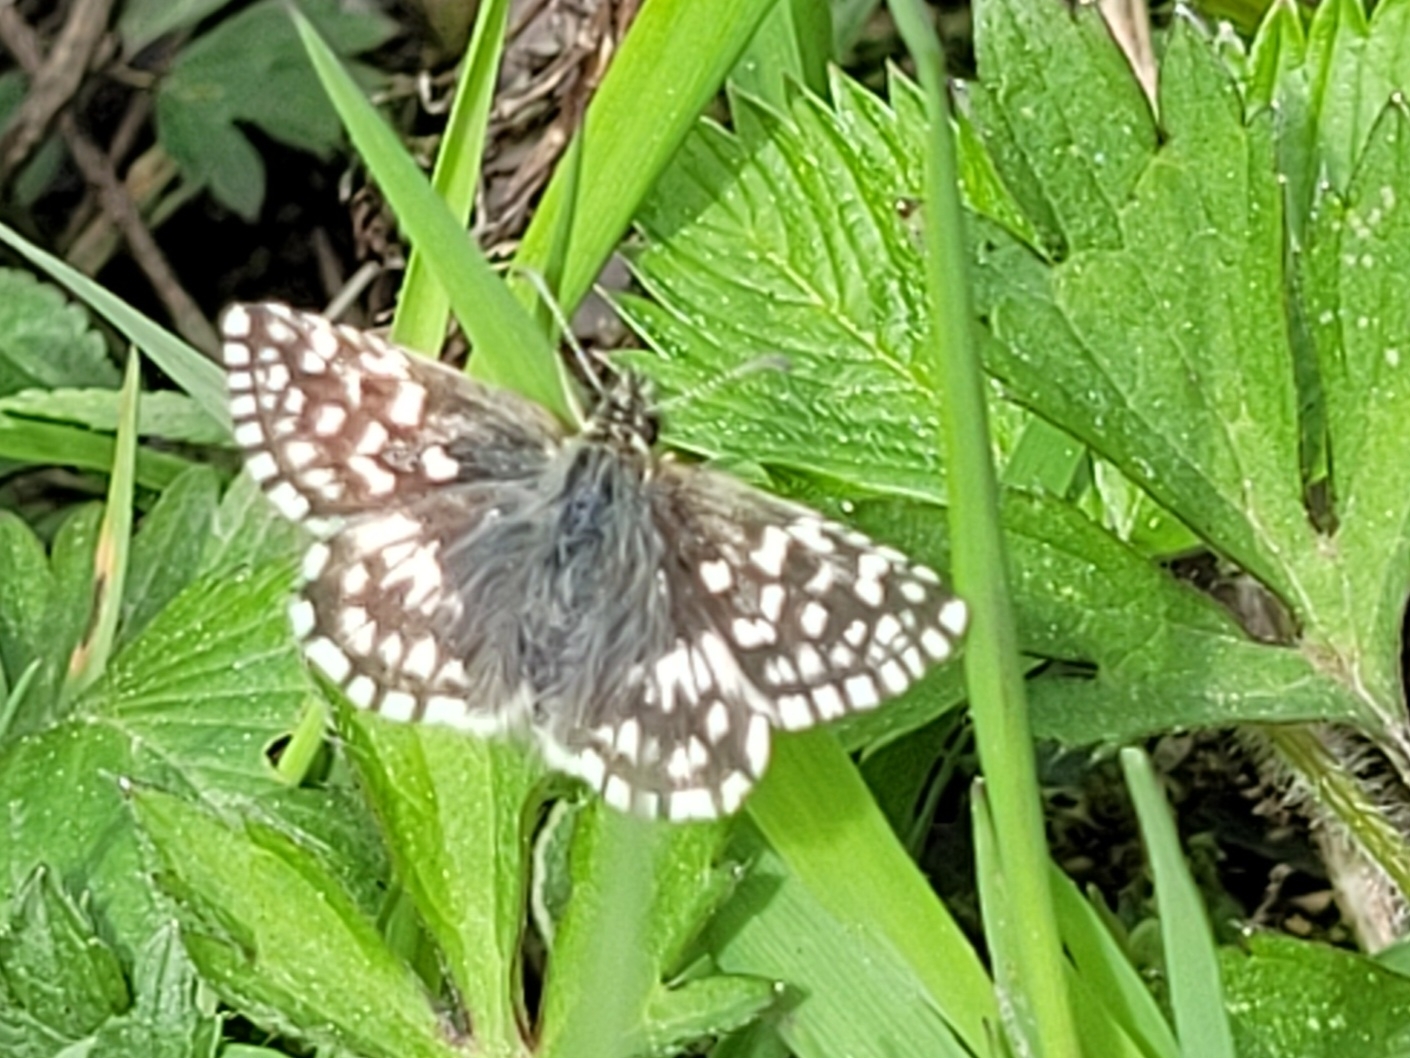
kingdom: Animalia
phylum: Arthropoda
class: Insecta
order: Lepidoptera
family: Hesperiidae
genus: Pyrgus
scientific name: Pyrgus malvae
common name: Grizzled skipper
